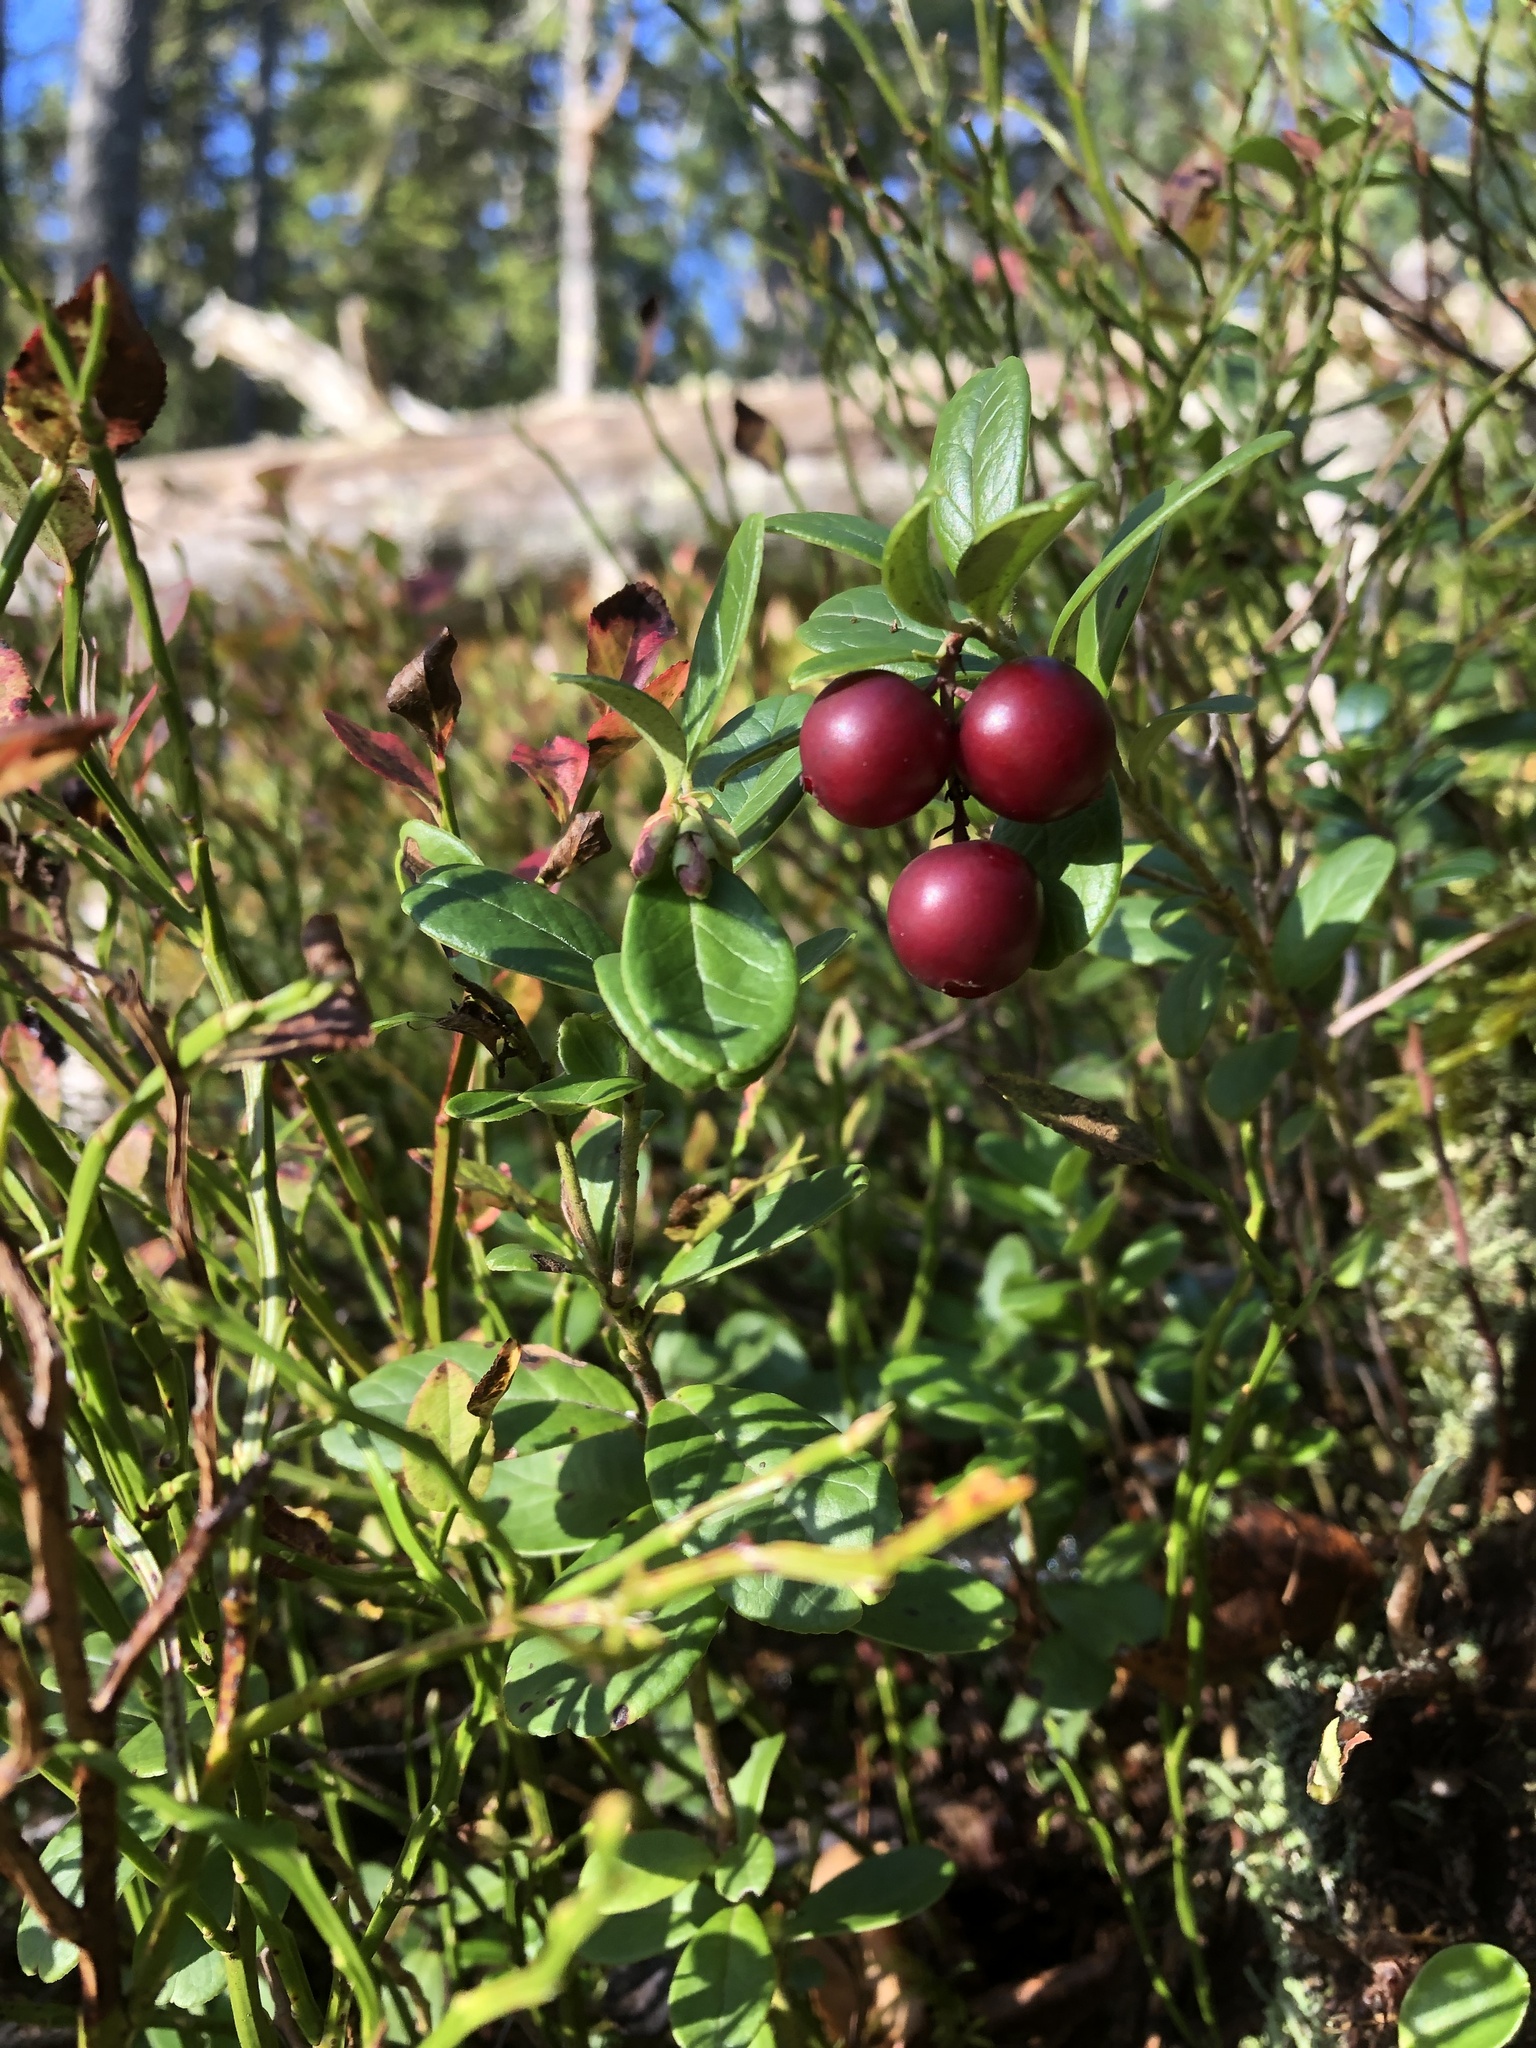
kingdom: Plantae
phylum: Tracheophyta
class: Magnoliopsida
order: Ericales
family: Ericaceae
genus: Vaccinium
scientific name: Vaccinium vitis-idaea
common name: Cowberry
